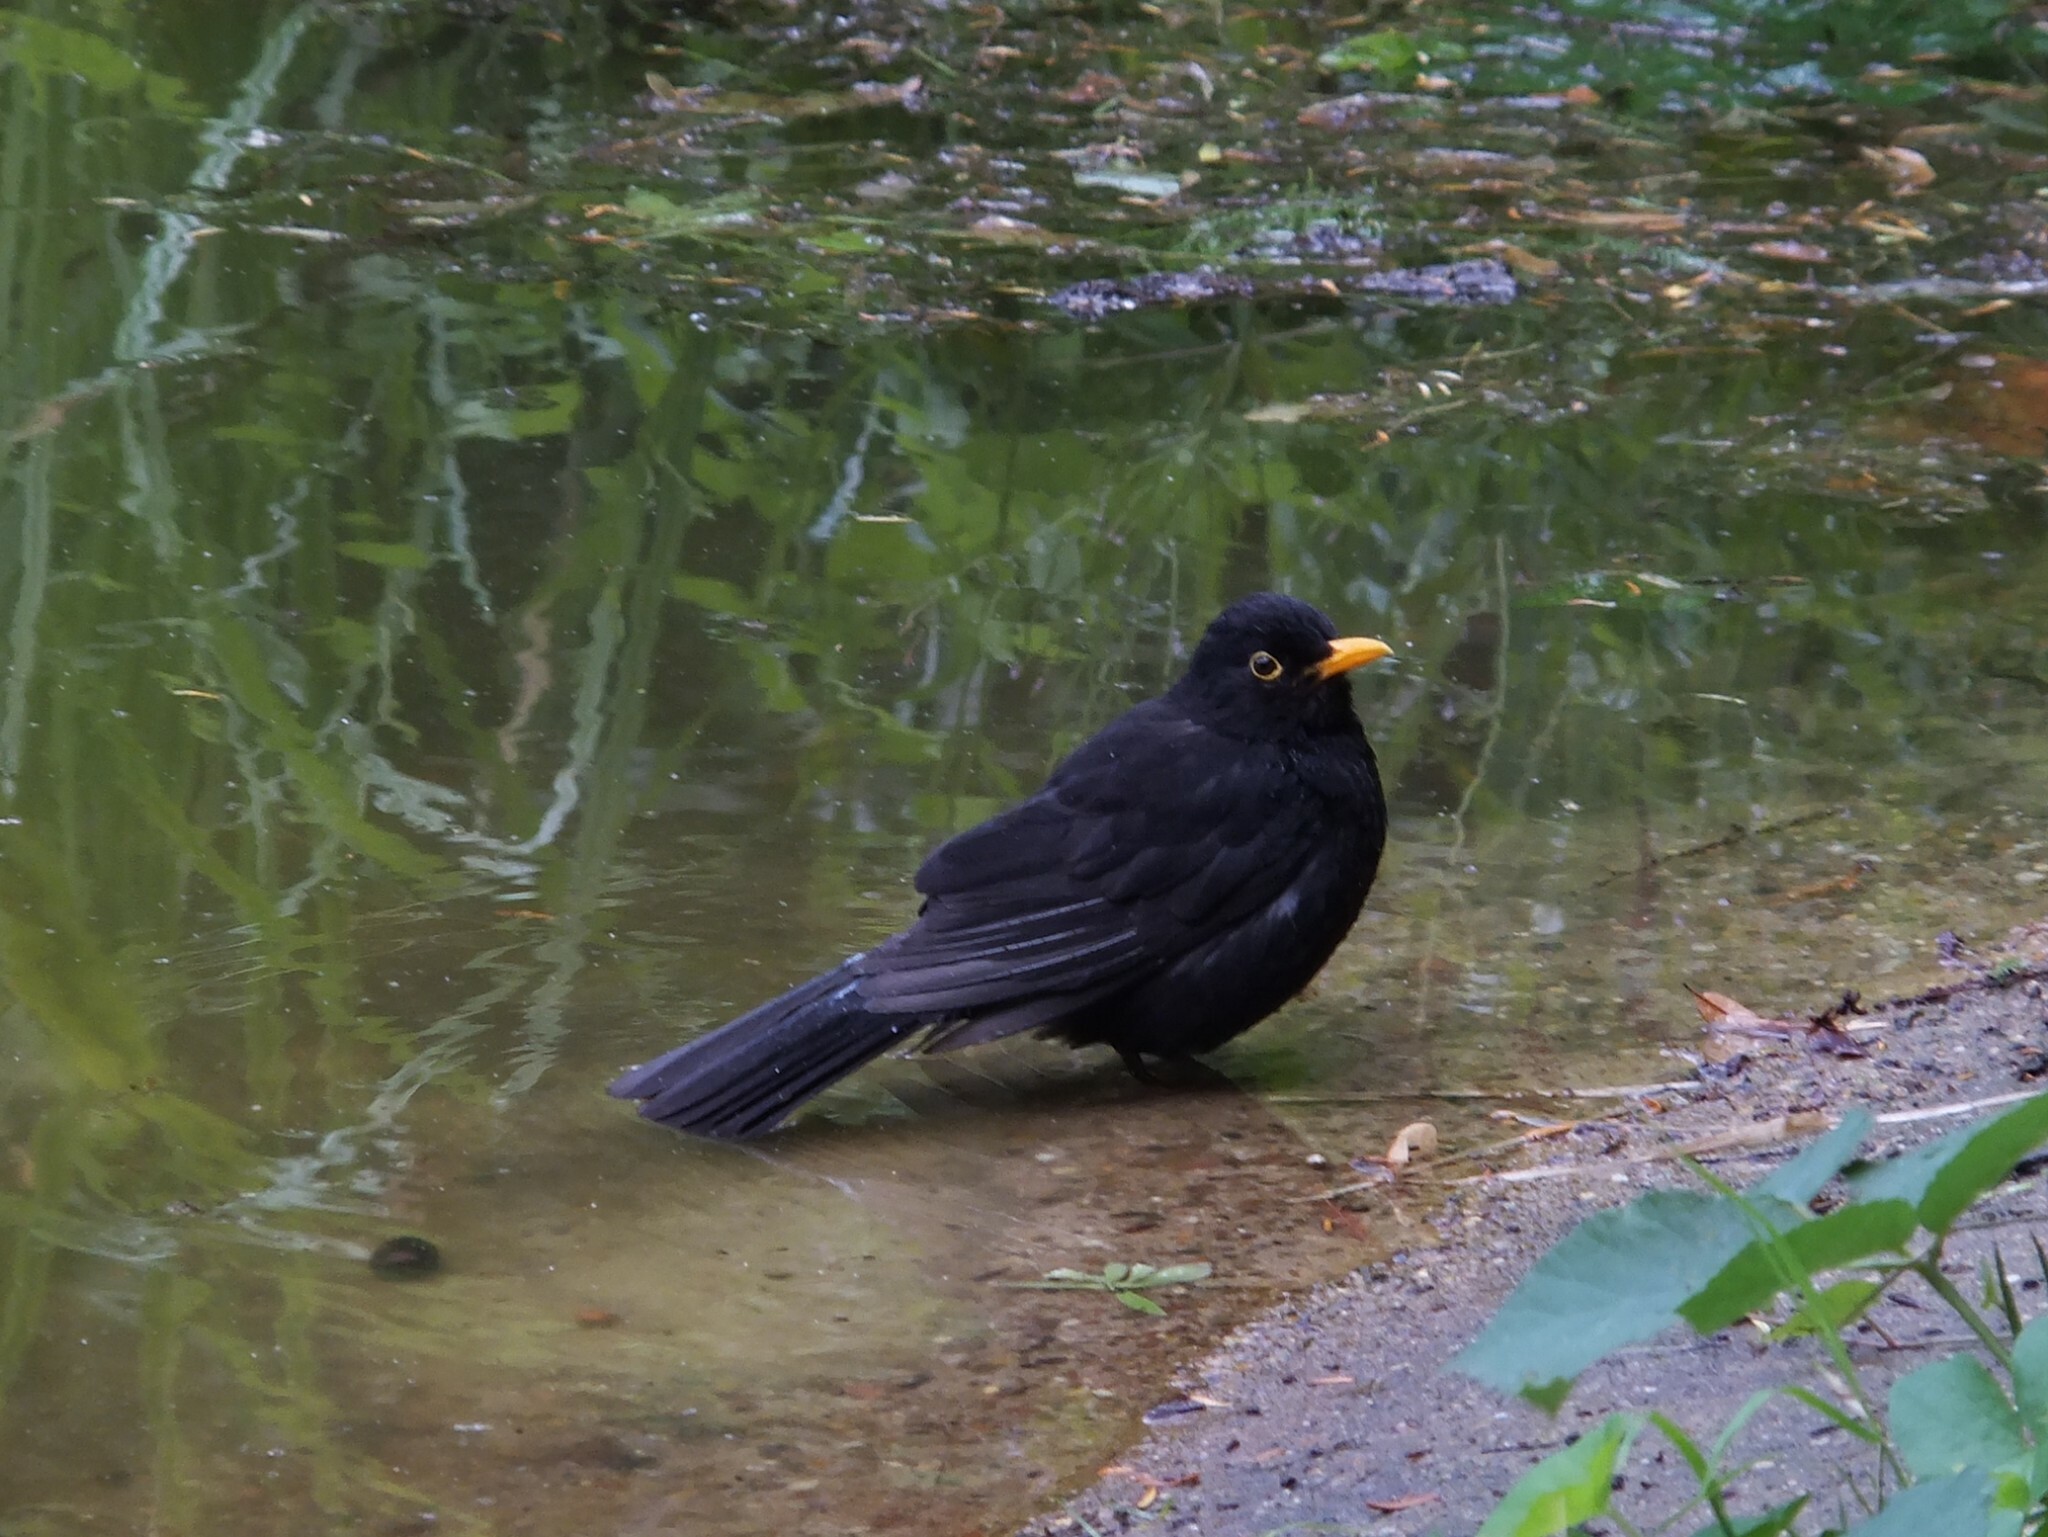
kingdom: Animalia
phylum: Chordata
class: Aves
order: Passeriformes
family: Turdidae
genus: Turdus
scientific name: Turdus merula
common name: Common blackbird
